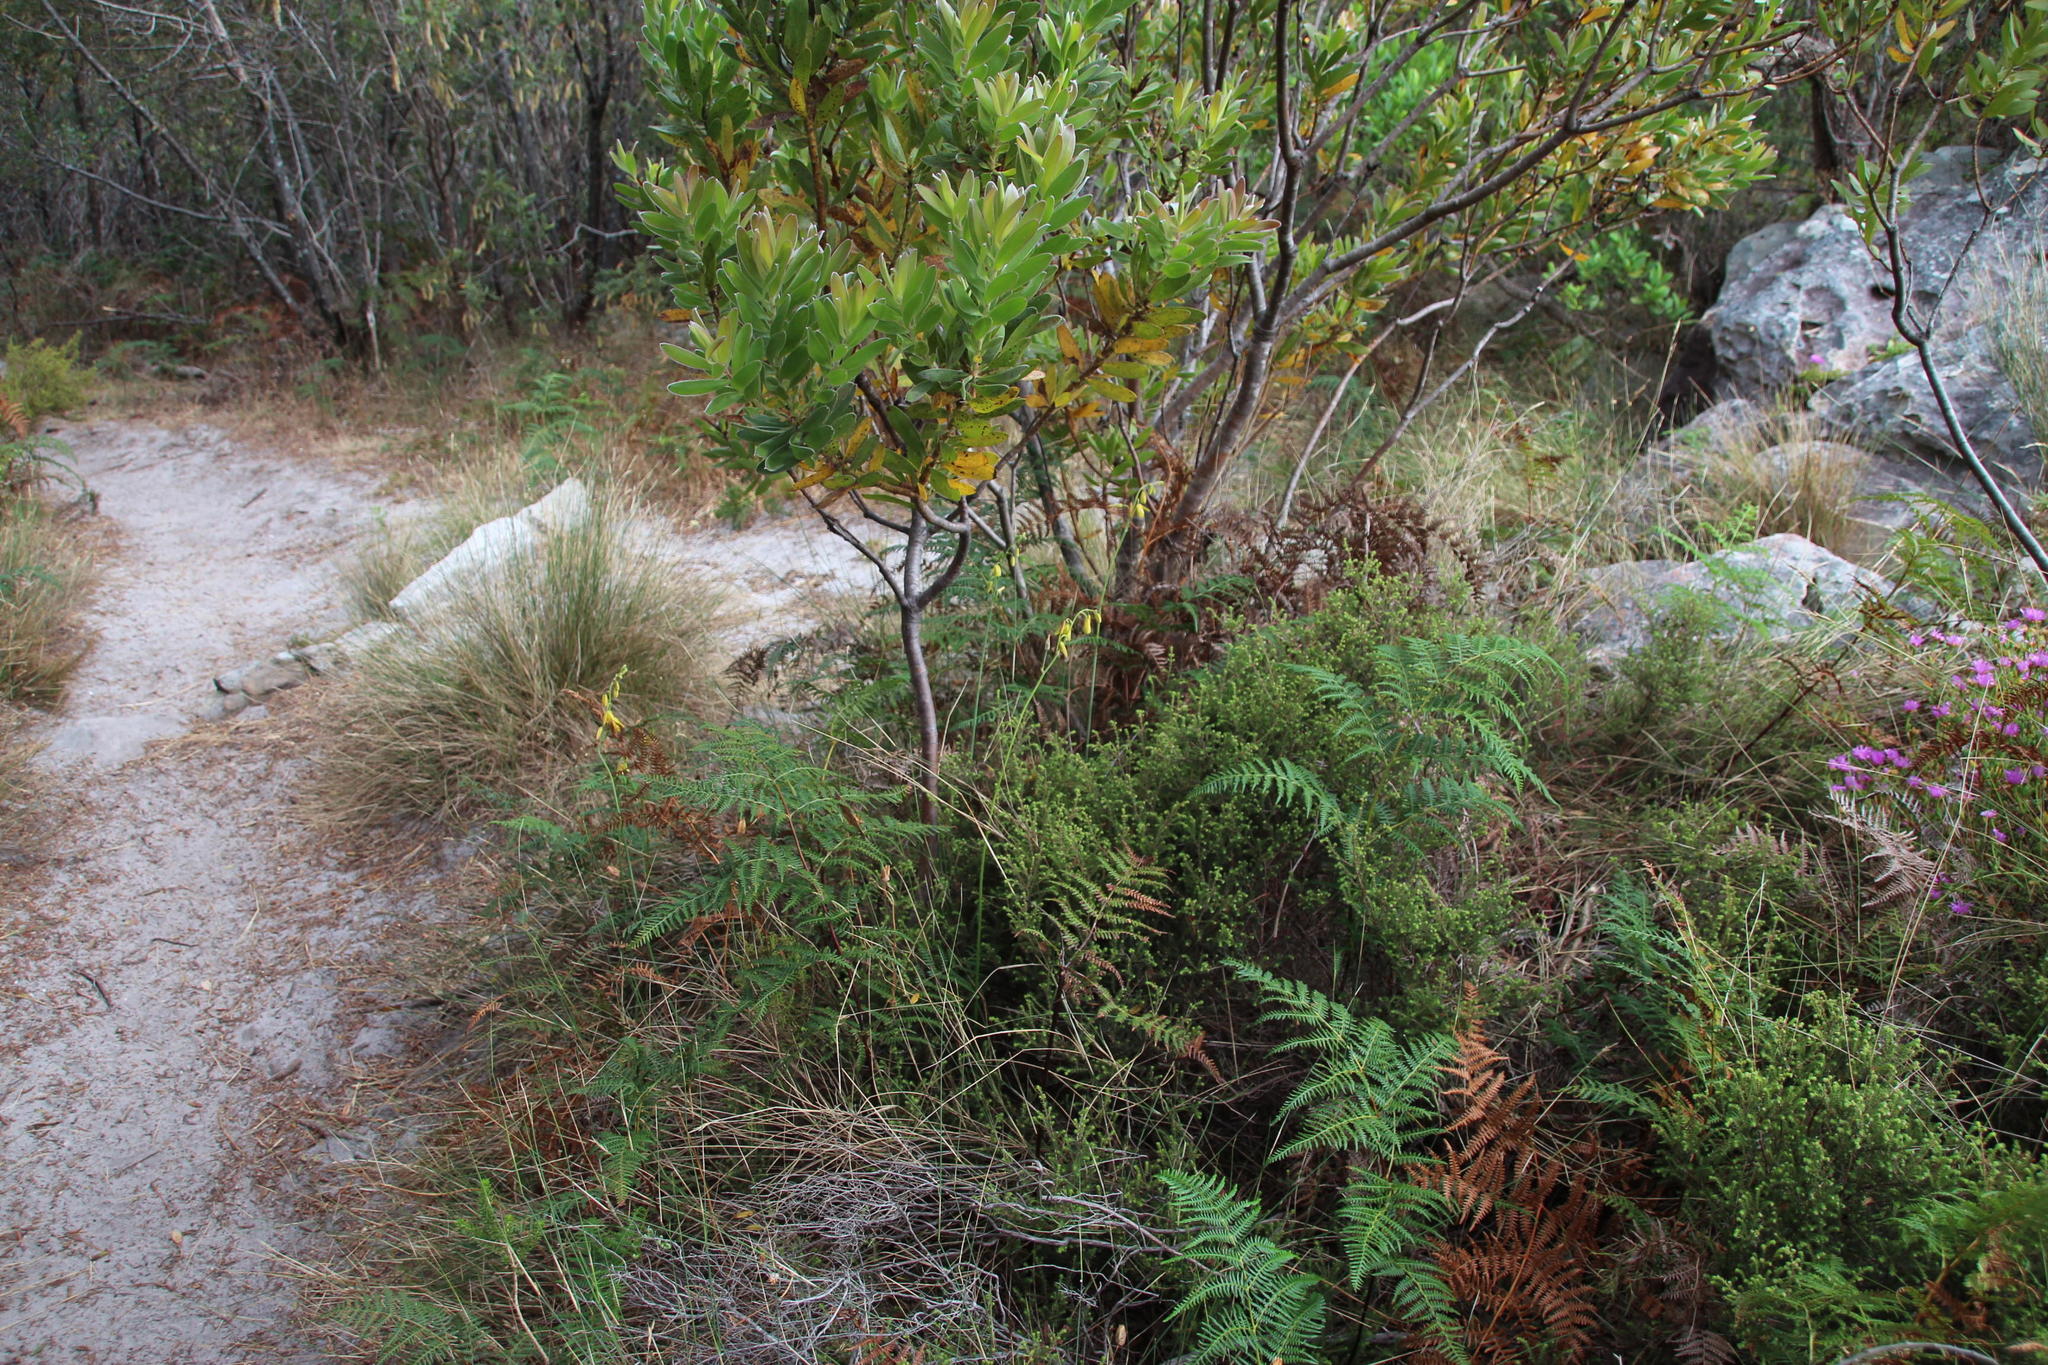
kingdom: Plantae
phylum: Tracheophyta
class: Liliopsida
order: Asparagales
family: Asparagaceae
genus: Albuca
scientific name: Albuca cooperi
